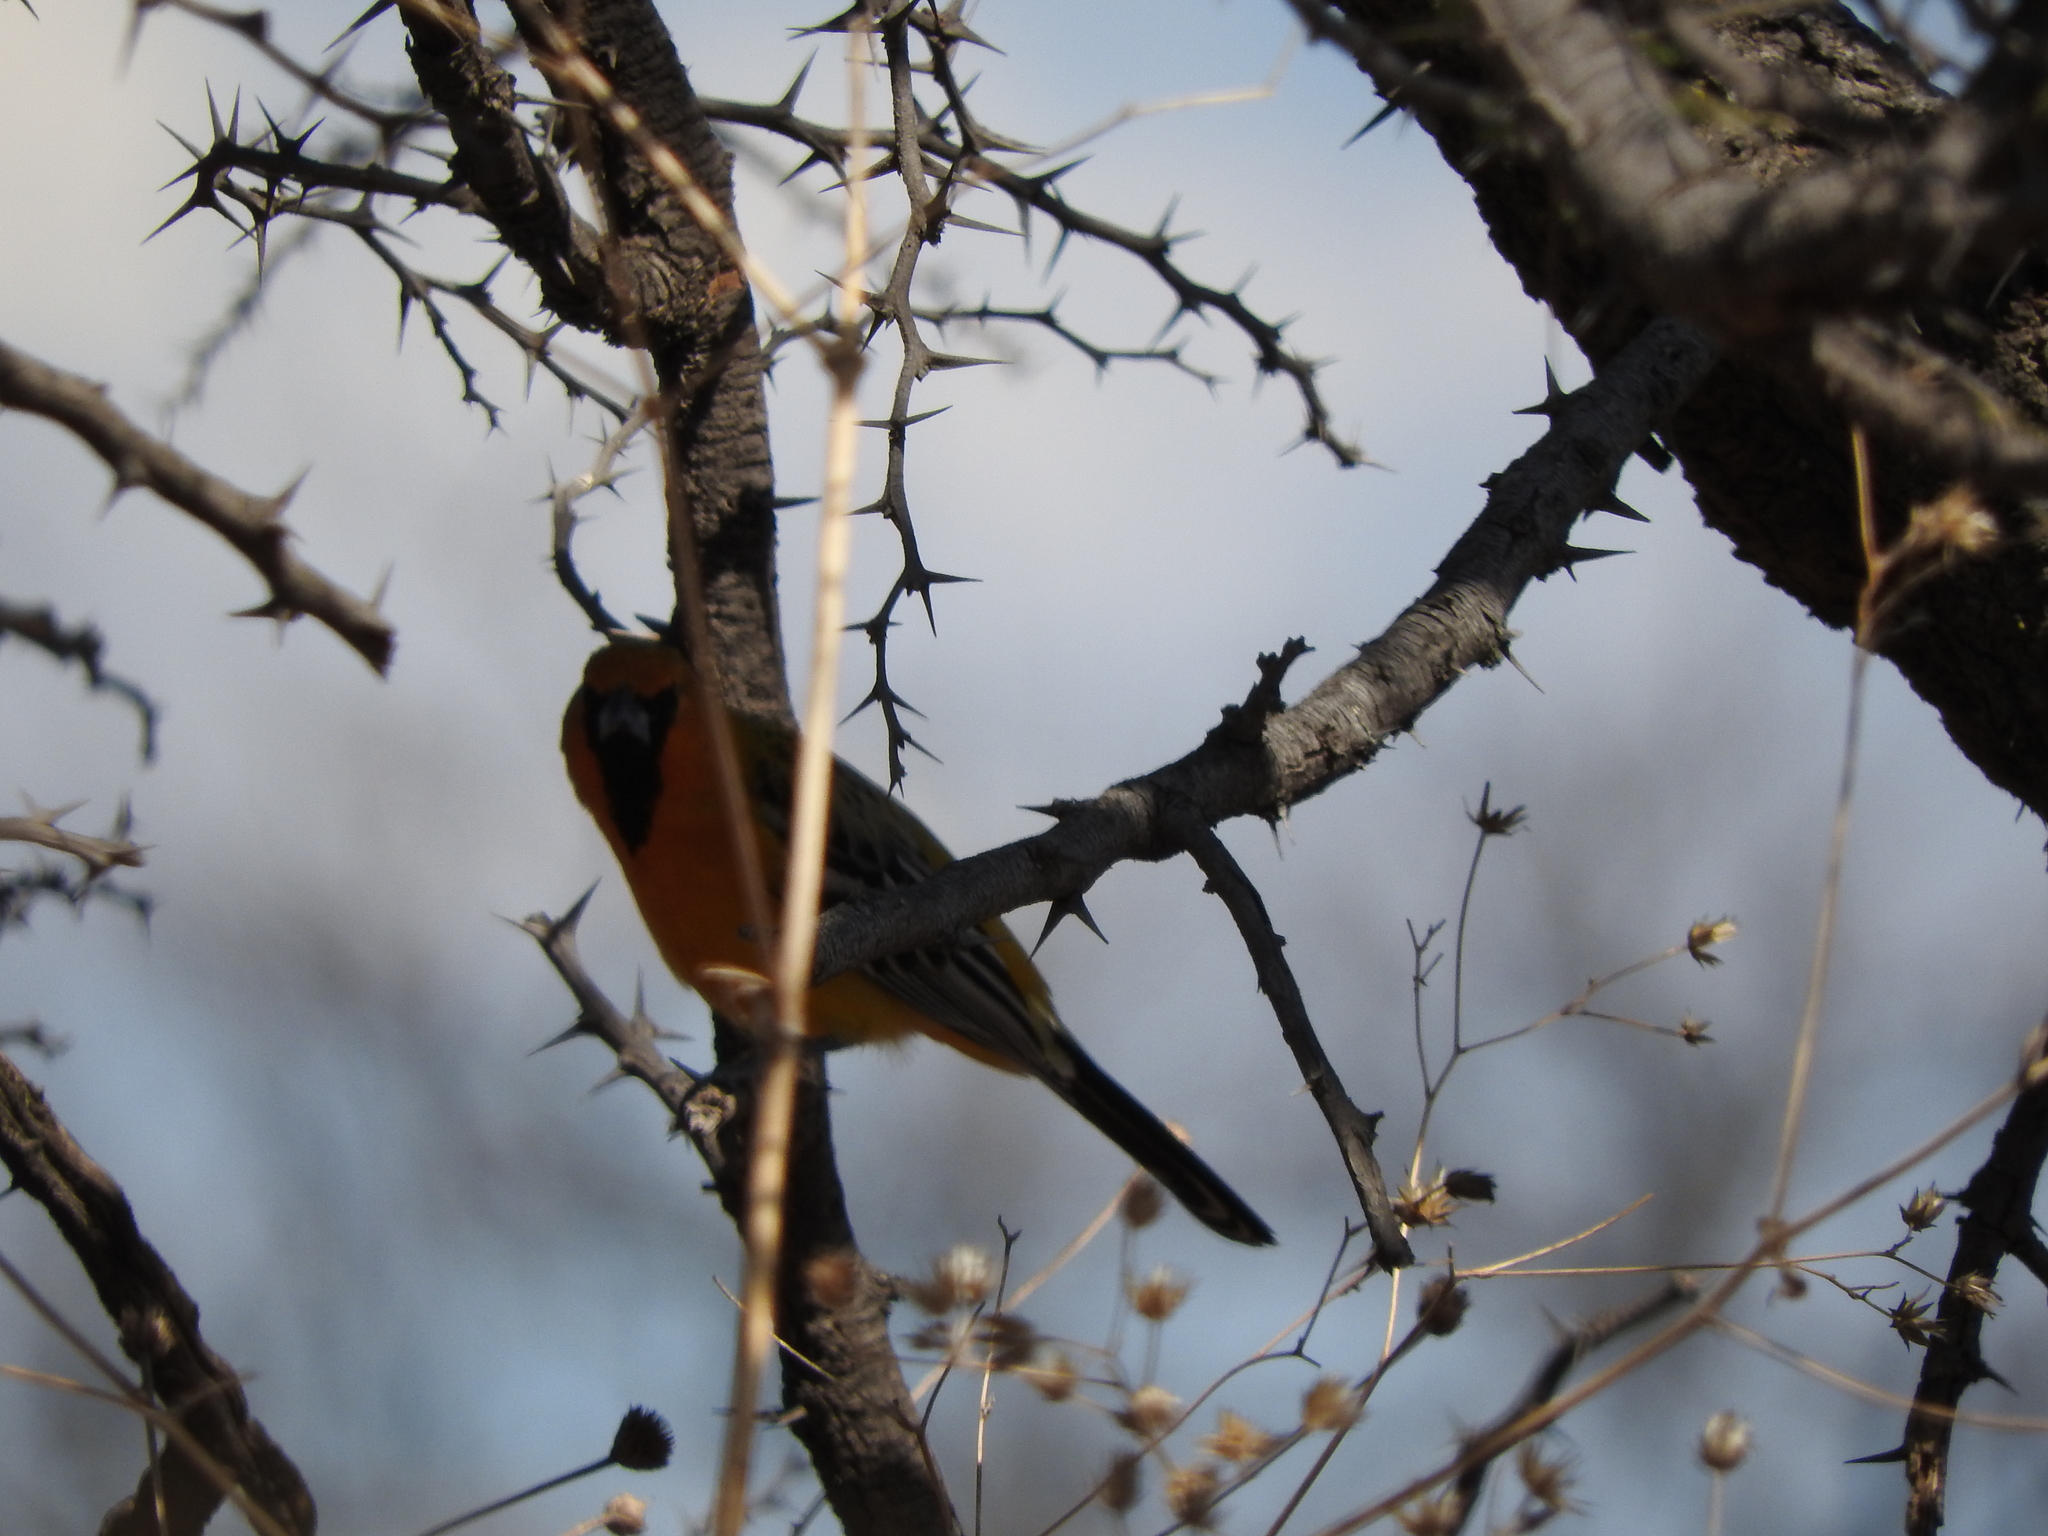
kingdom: Animalia
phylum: Chordata
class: Aves
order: Passeriformes
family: Icteridae
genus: Icterus
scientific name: Icterus pustulatus
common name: Streak-backed oriole
